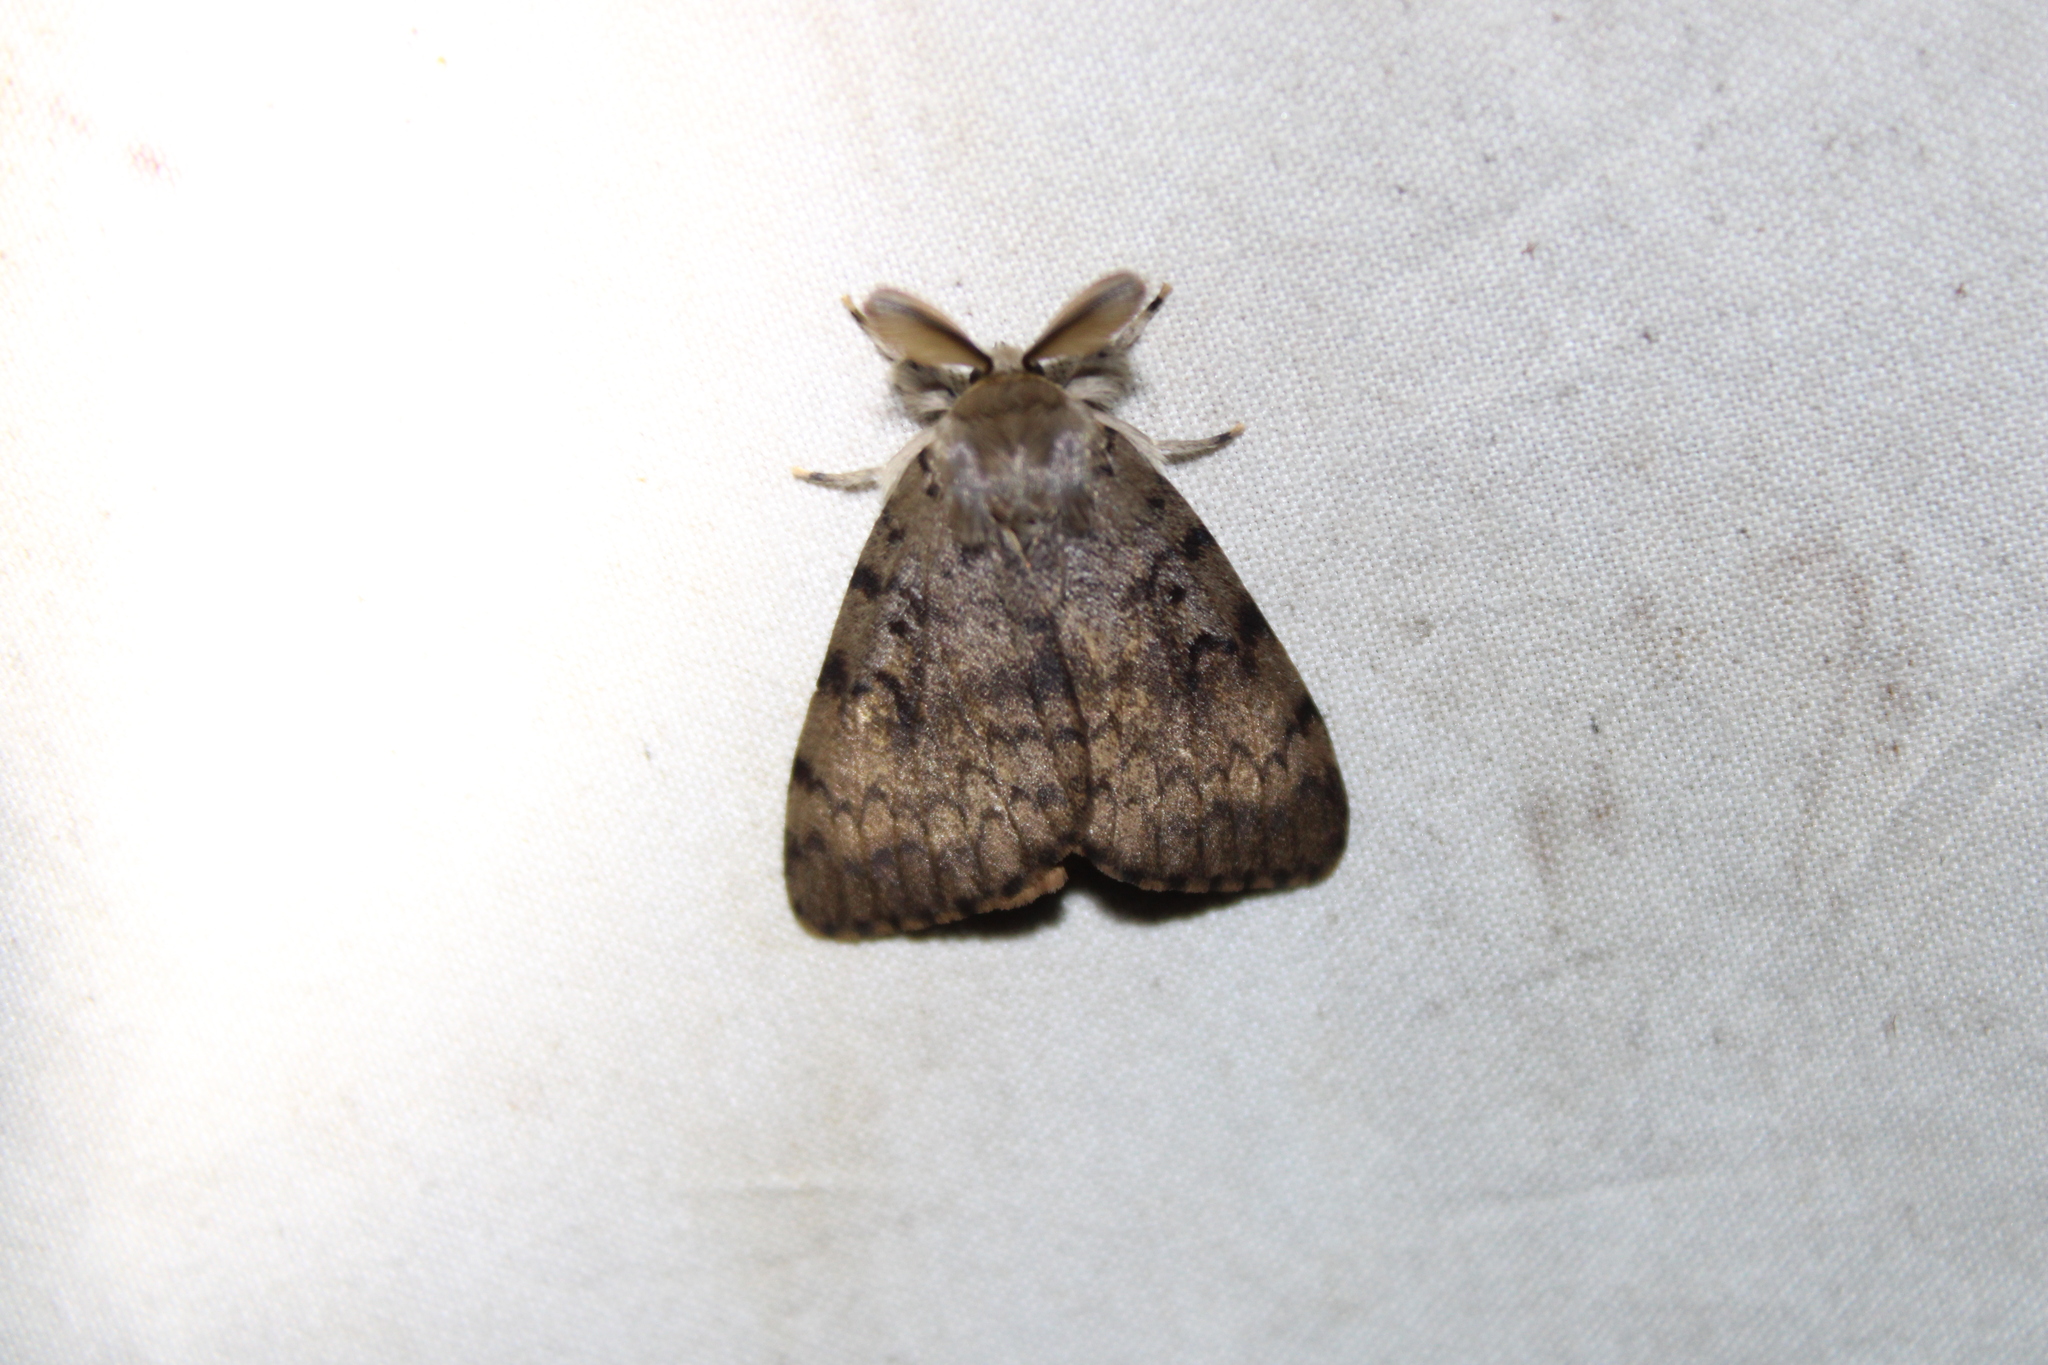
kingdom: Animalia
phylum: Arthropoda
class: Insecta
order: Lepidoptera
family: Erebidae
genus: Lymantria
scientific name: Lymantria dispar
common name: Gypsy moth
